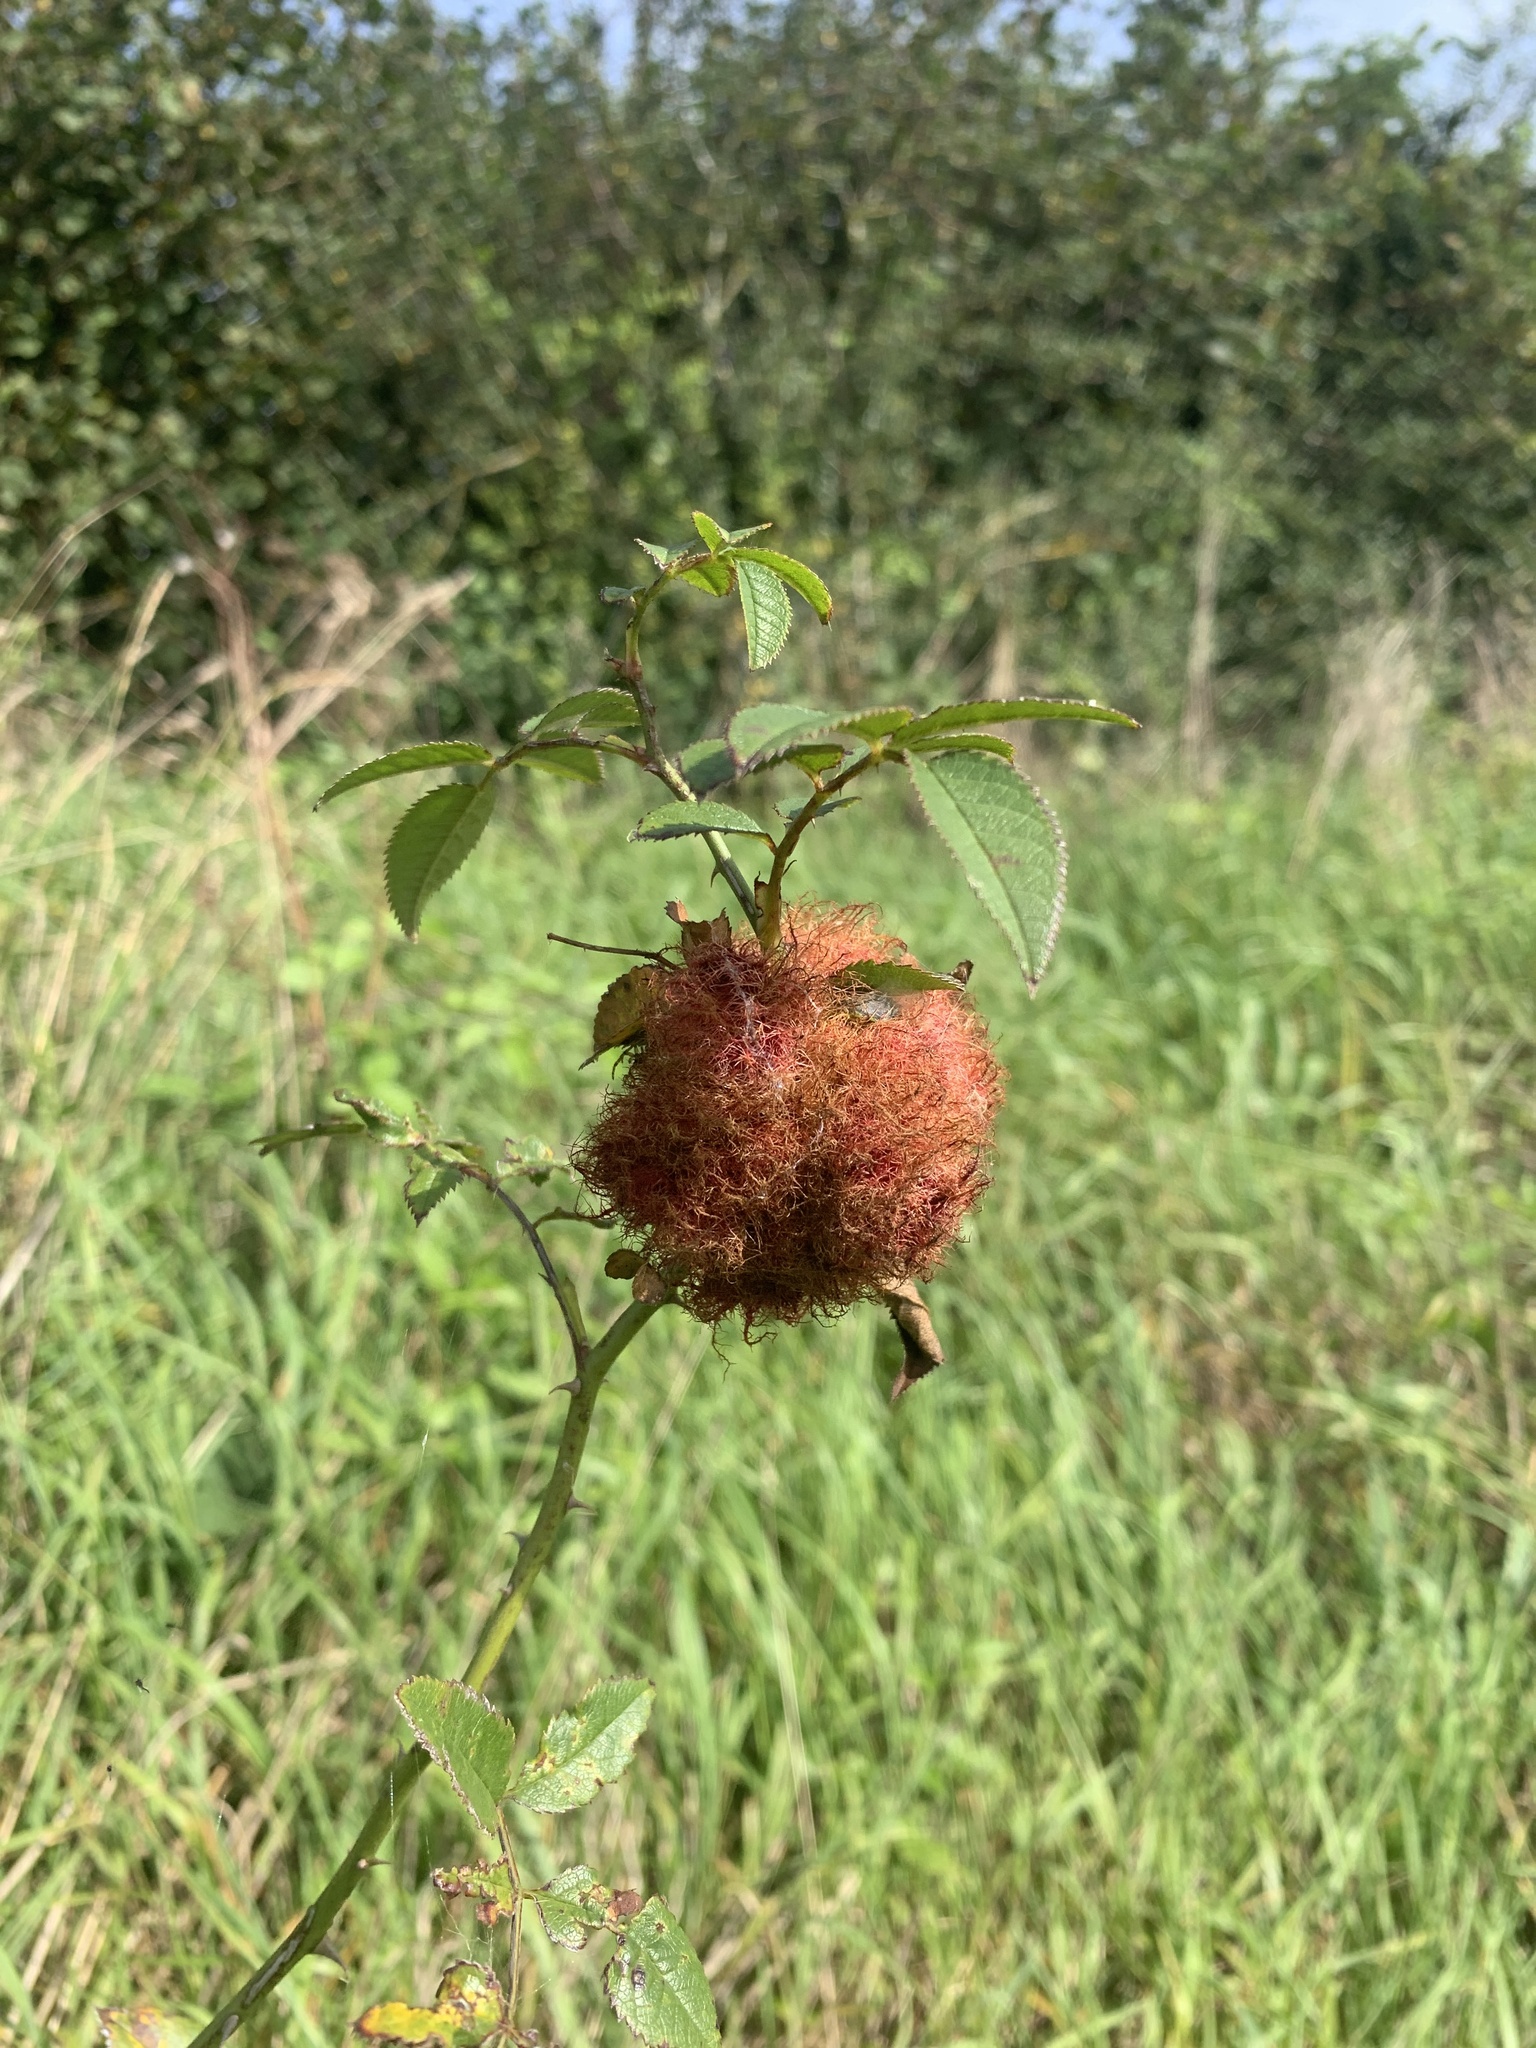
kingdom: Animalia
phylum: Arthropoda
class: Insecta
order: Hymenoptera
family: Cynipidae
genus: Diplolepis
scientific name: Diplolepis rosae
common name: Bedeguar gall
